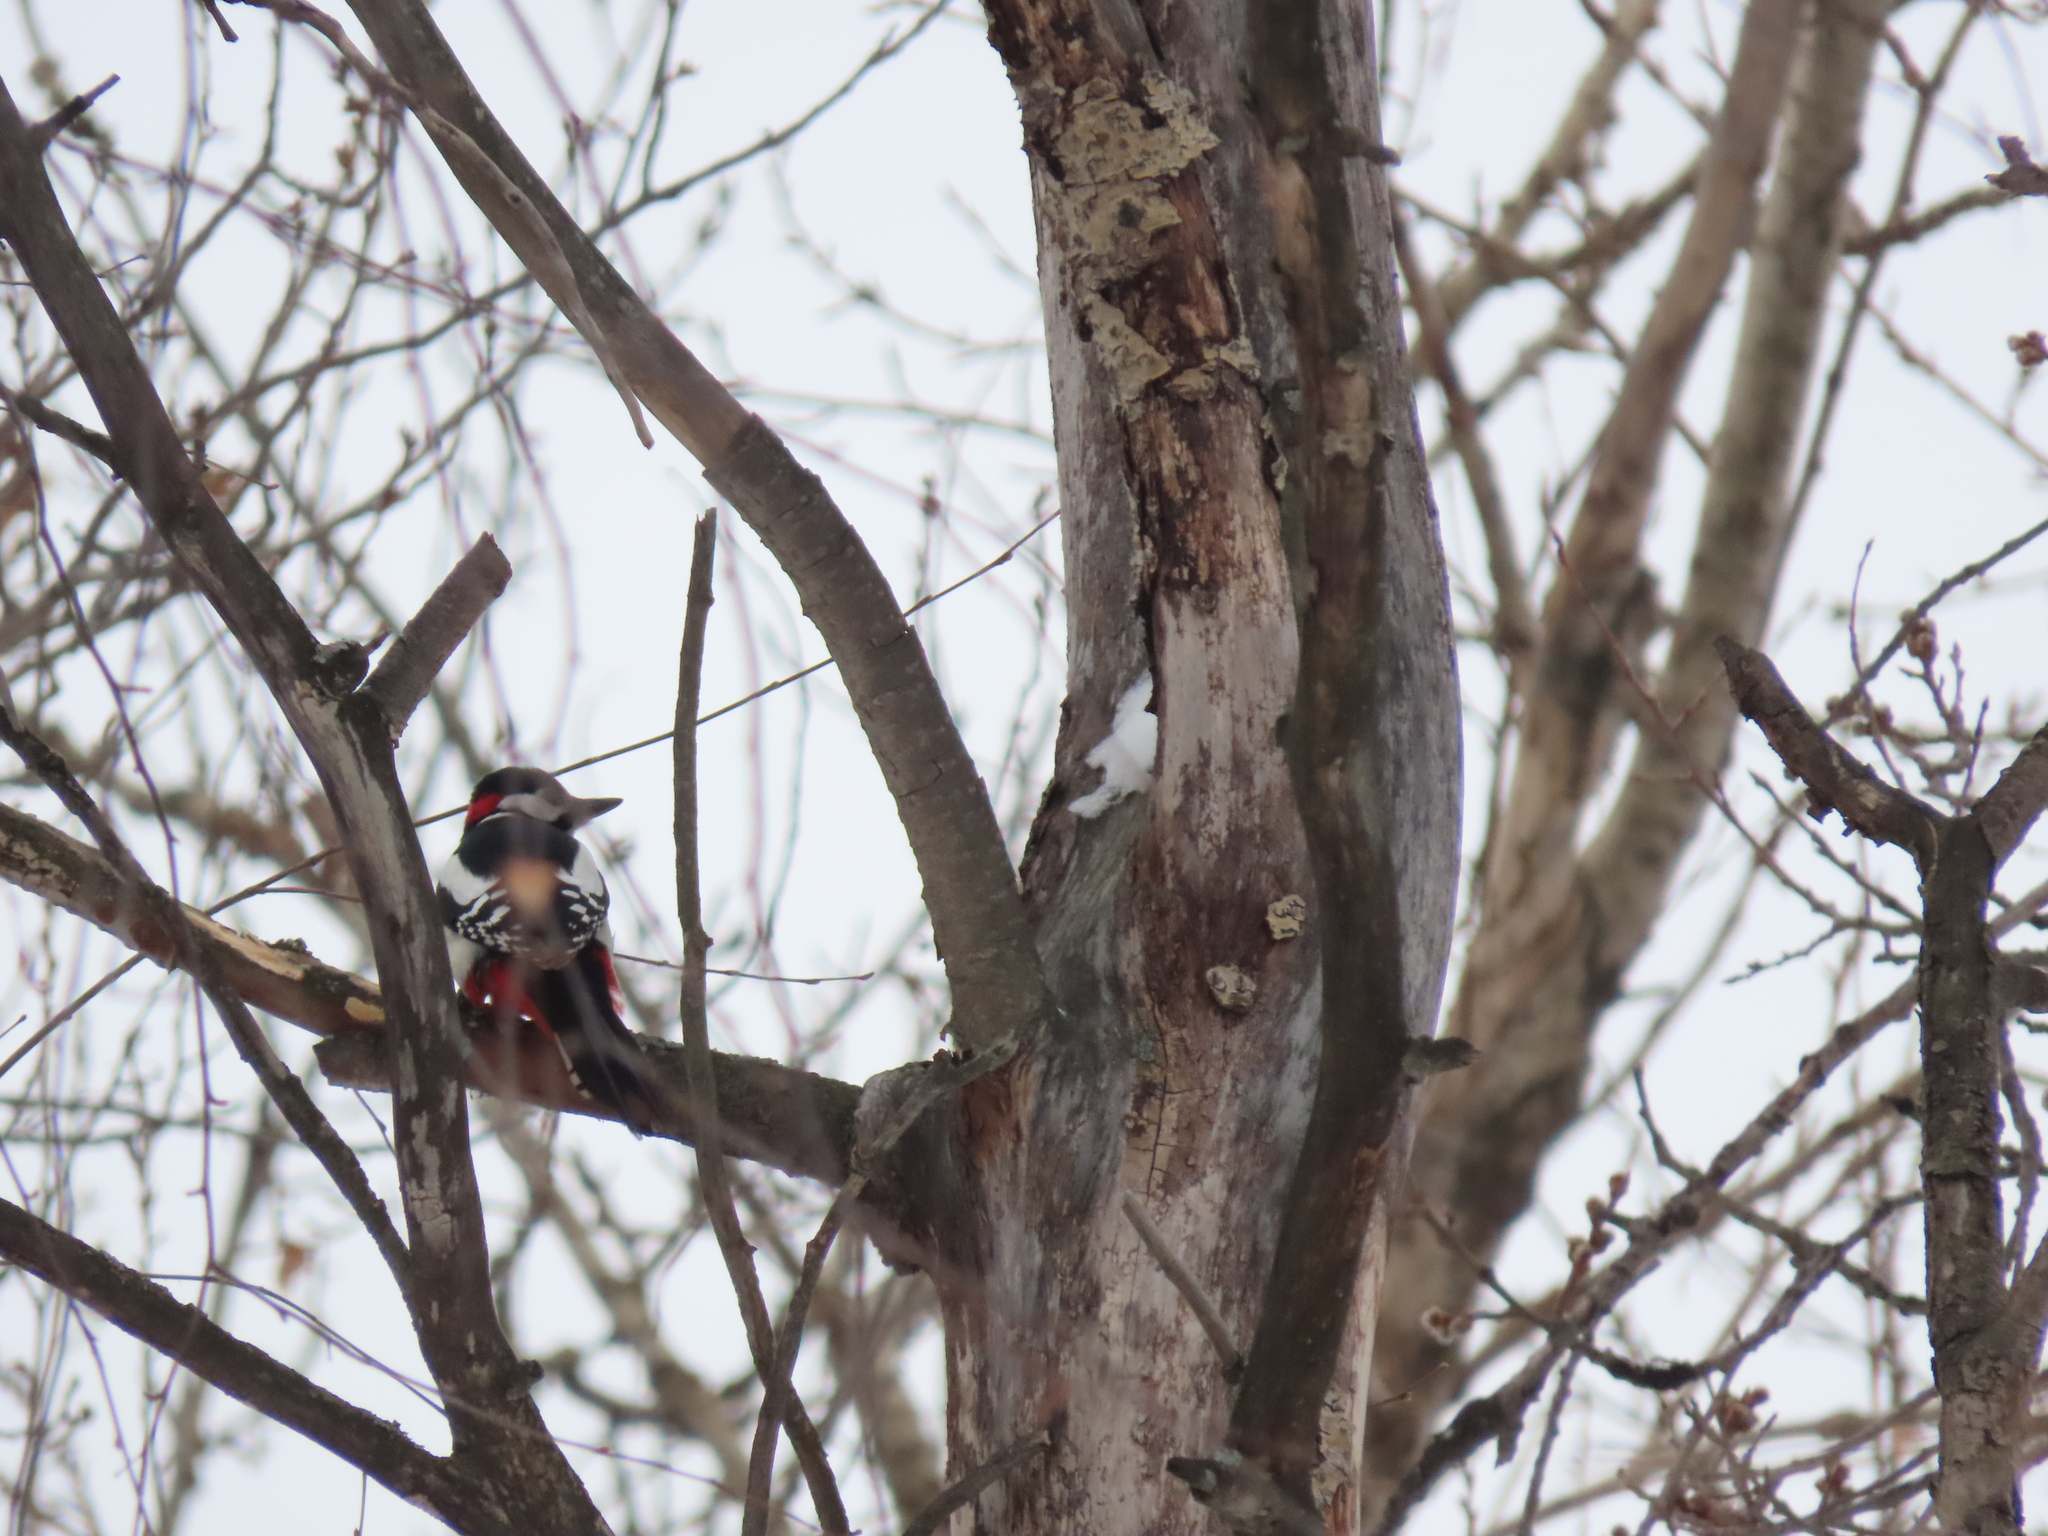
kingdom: Animalia
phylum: Chordata
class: Aves
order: Piciformes
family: Picidae
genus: Dendrocopos
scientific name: Dendrocopos major
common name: Great spotted woodpecker
